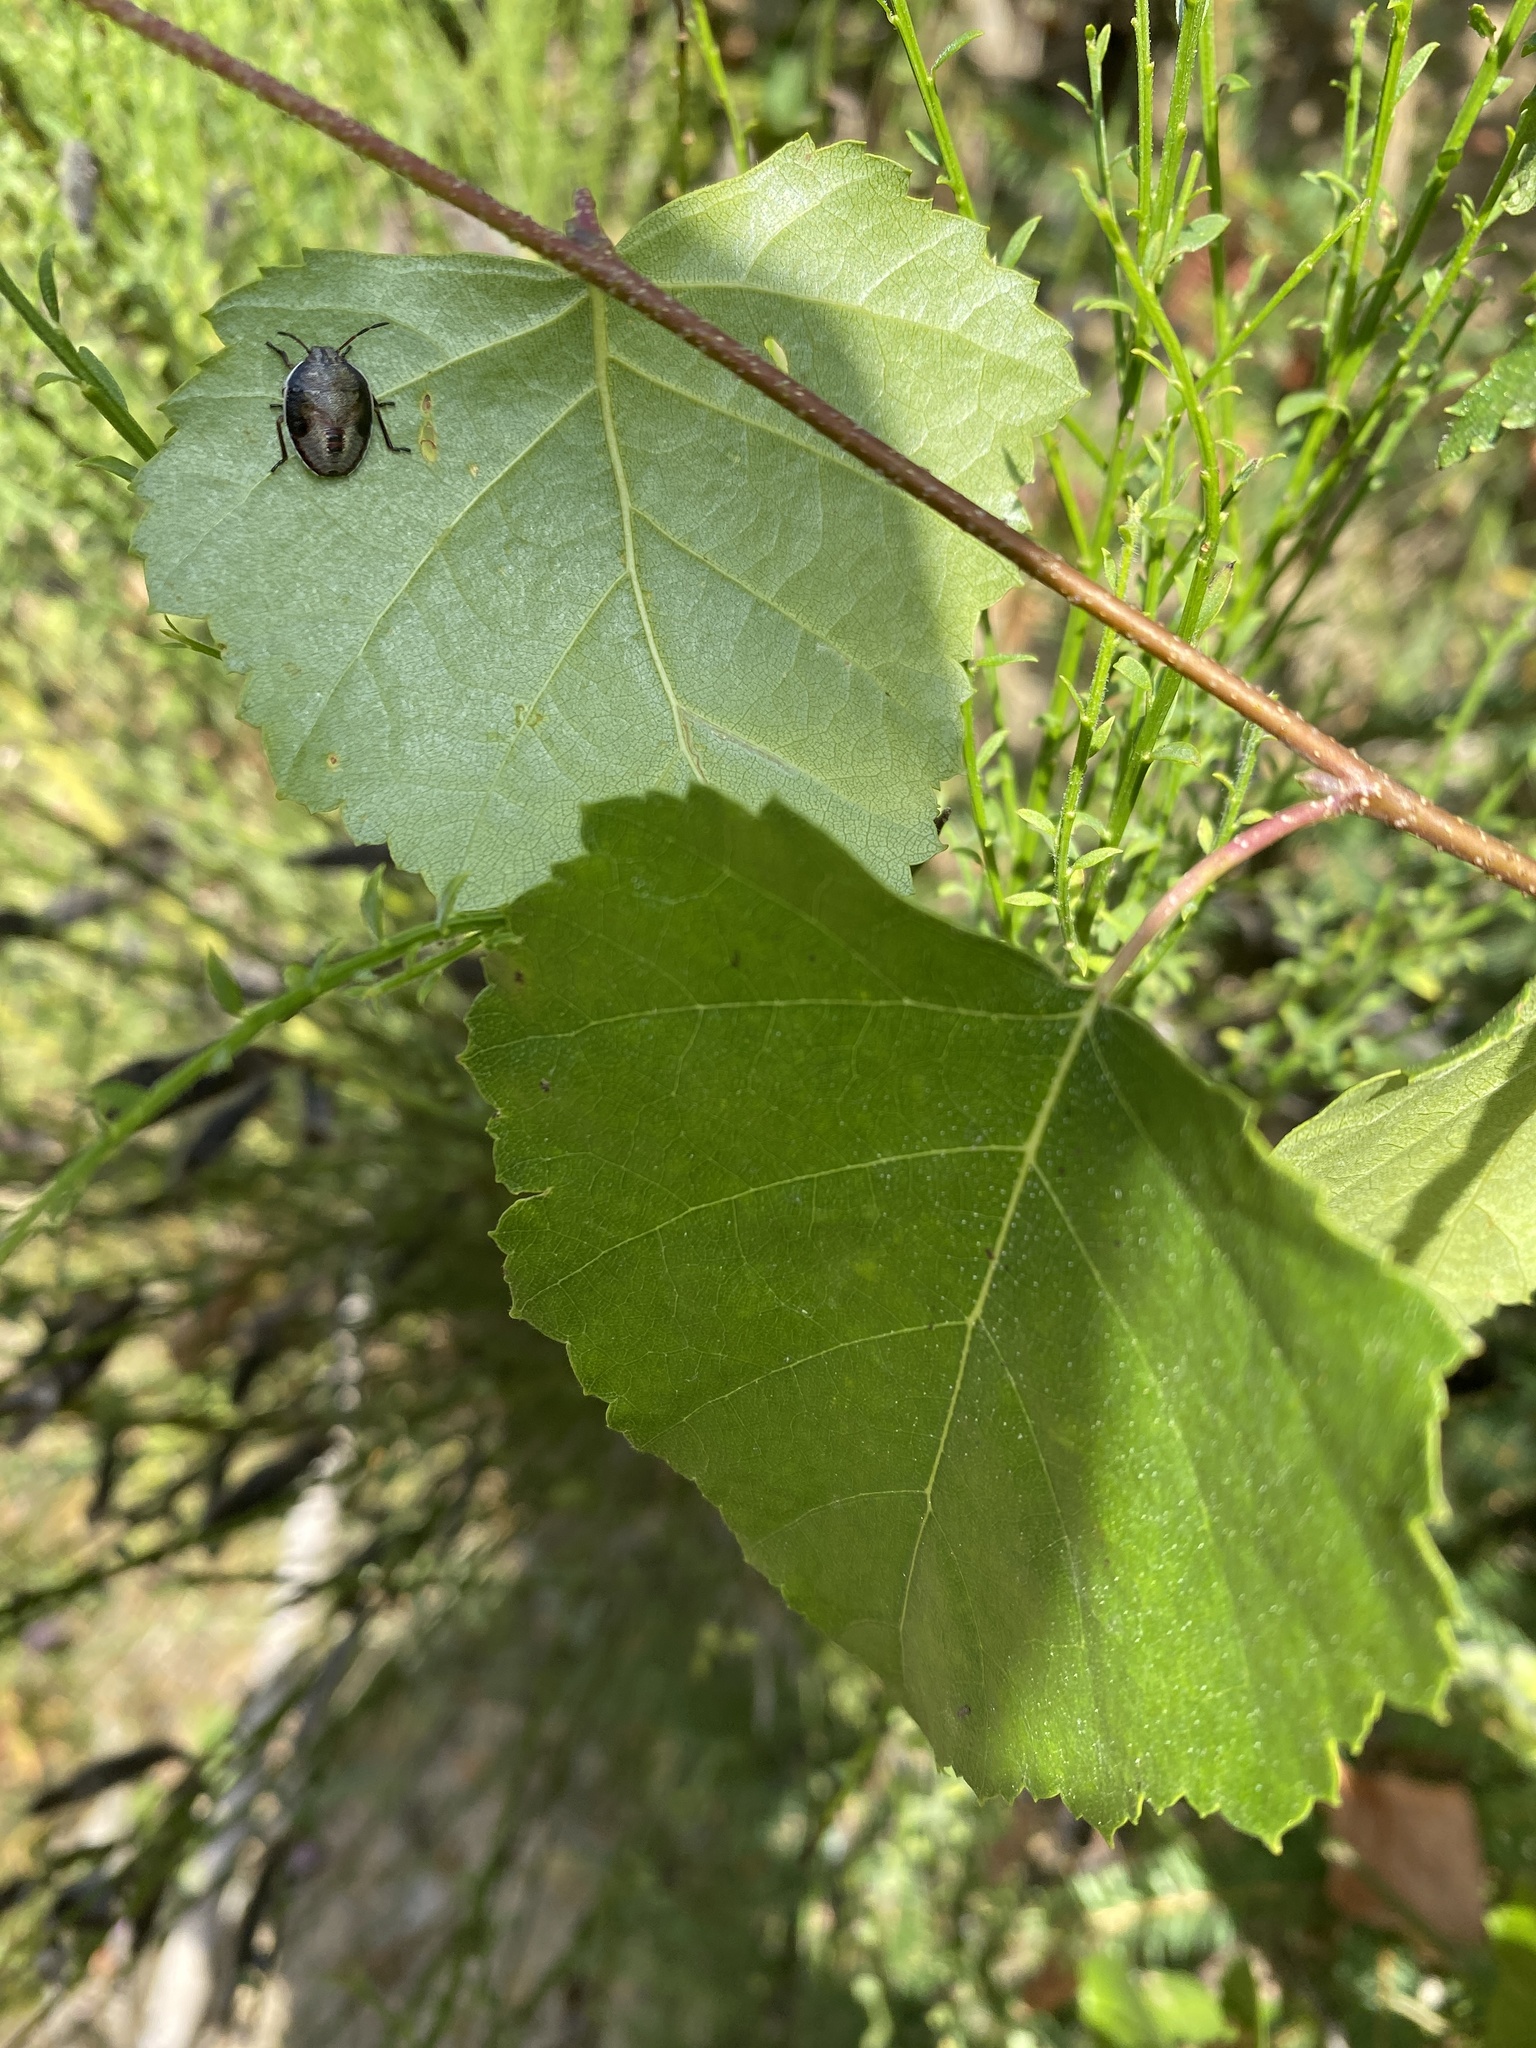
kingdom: Animalia
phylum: Arthropoda
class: Insecta
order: Hemiptera
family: Pentatomidae
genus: Piezodorus
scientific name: Piezodorus lituratus
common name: Stink bug
